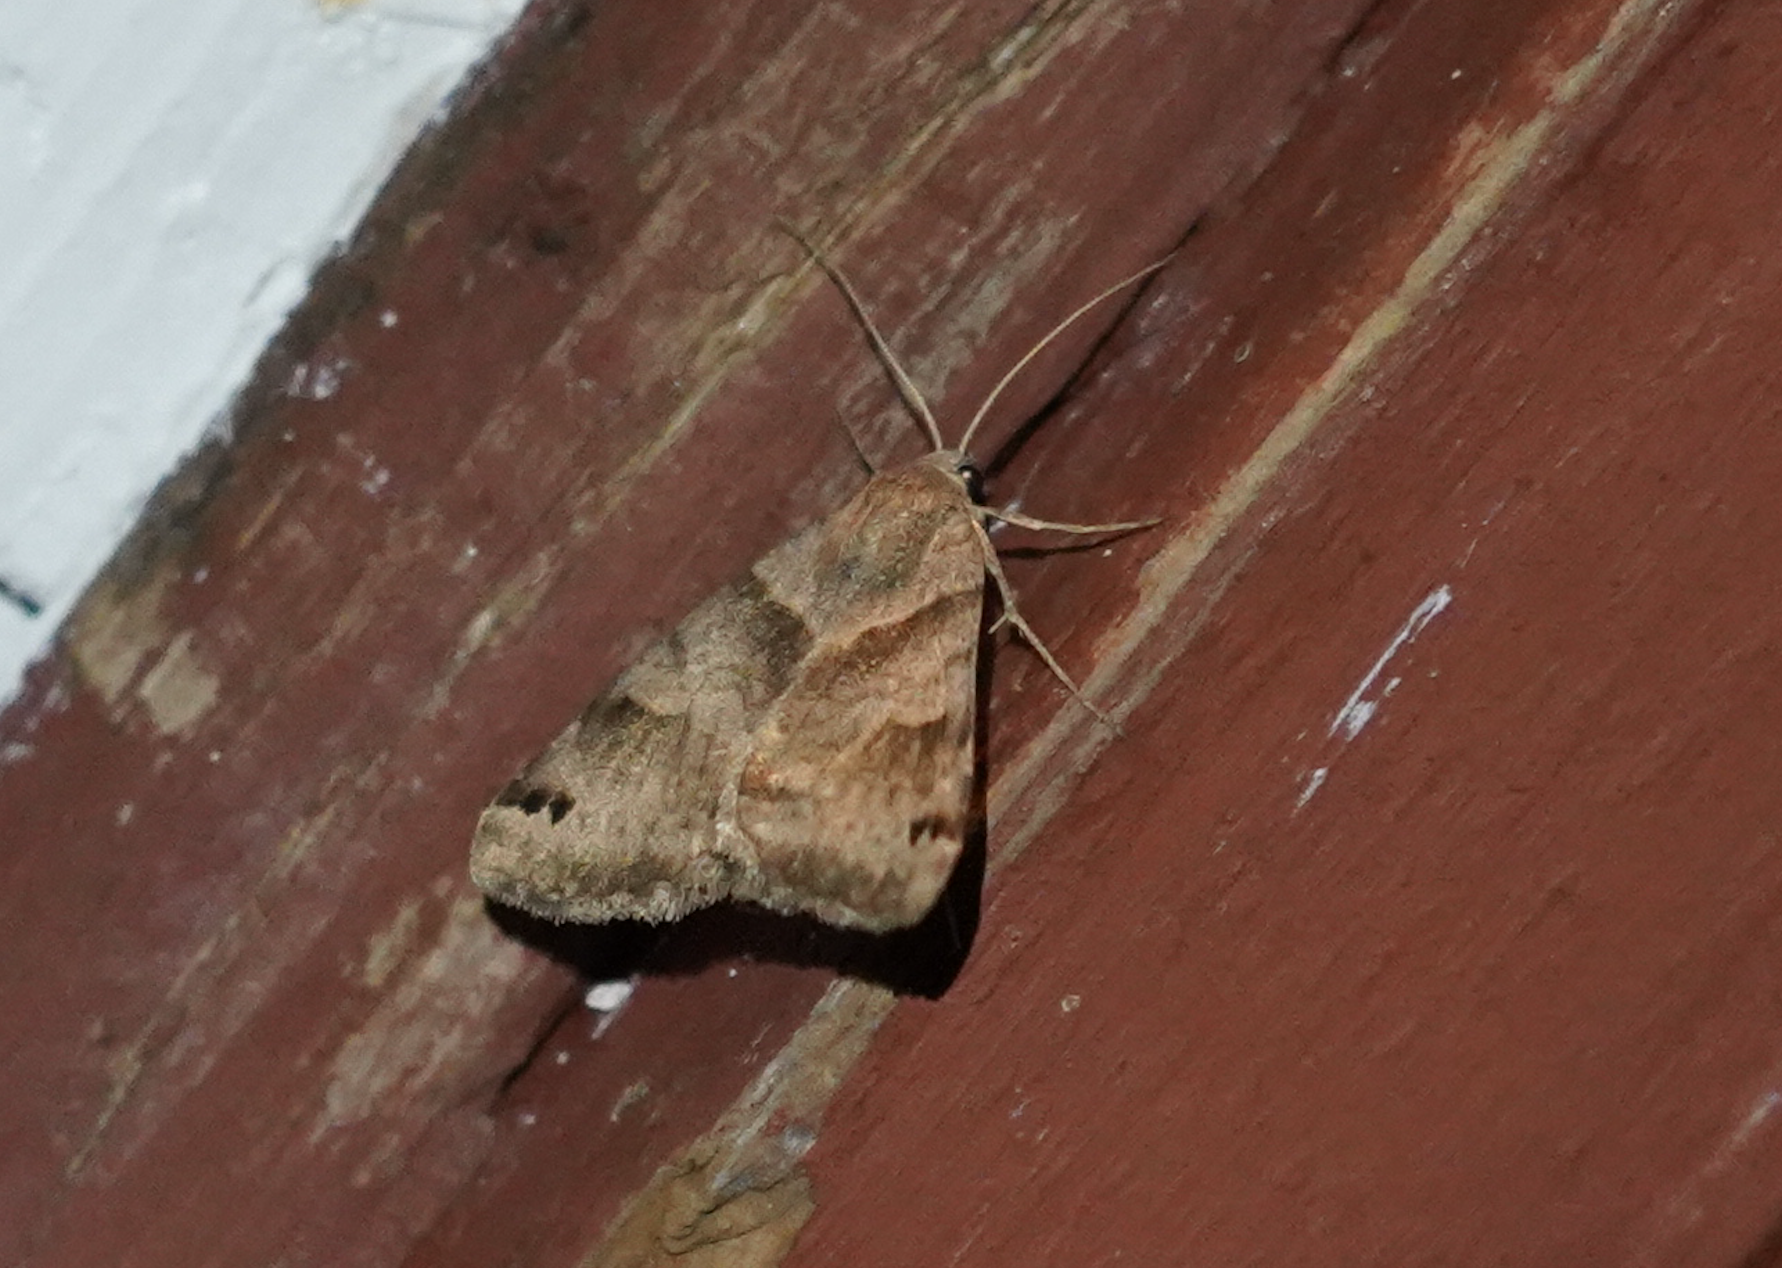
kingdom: Animalia
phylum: Arthropoda
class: Insecta
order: Lepidoptera
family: Erebidae
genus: Caenurgina
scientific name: Caenurgina crassiuscula
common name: Double-barred
